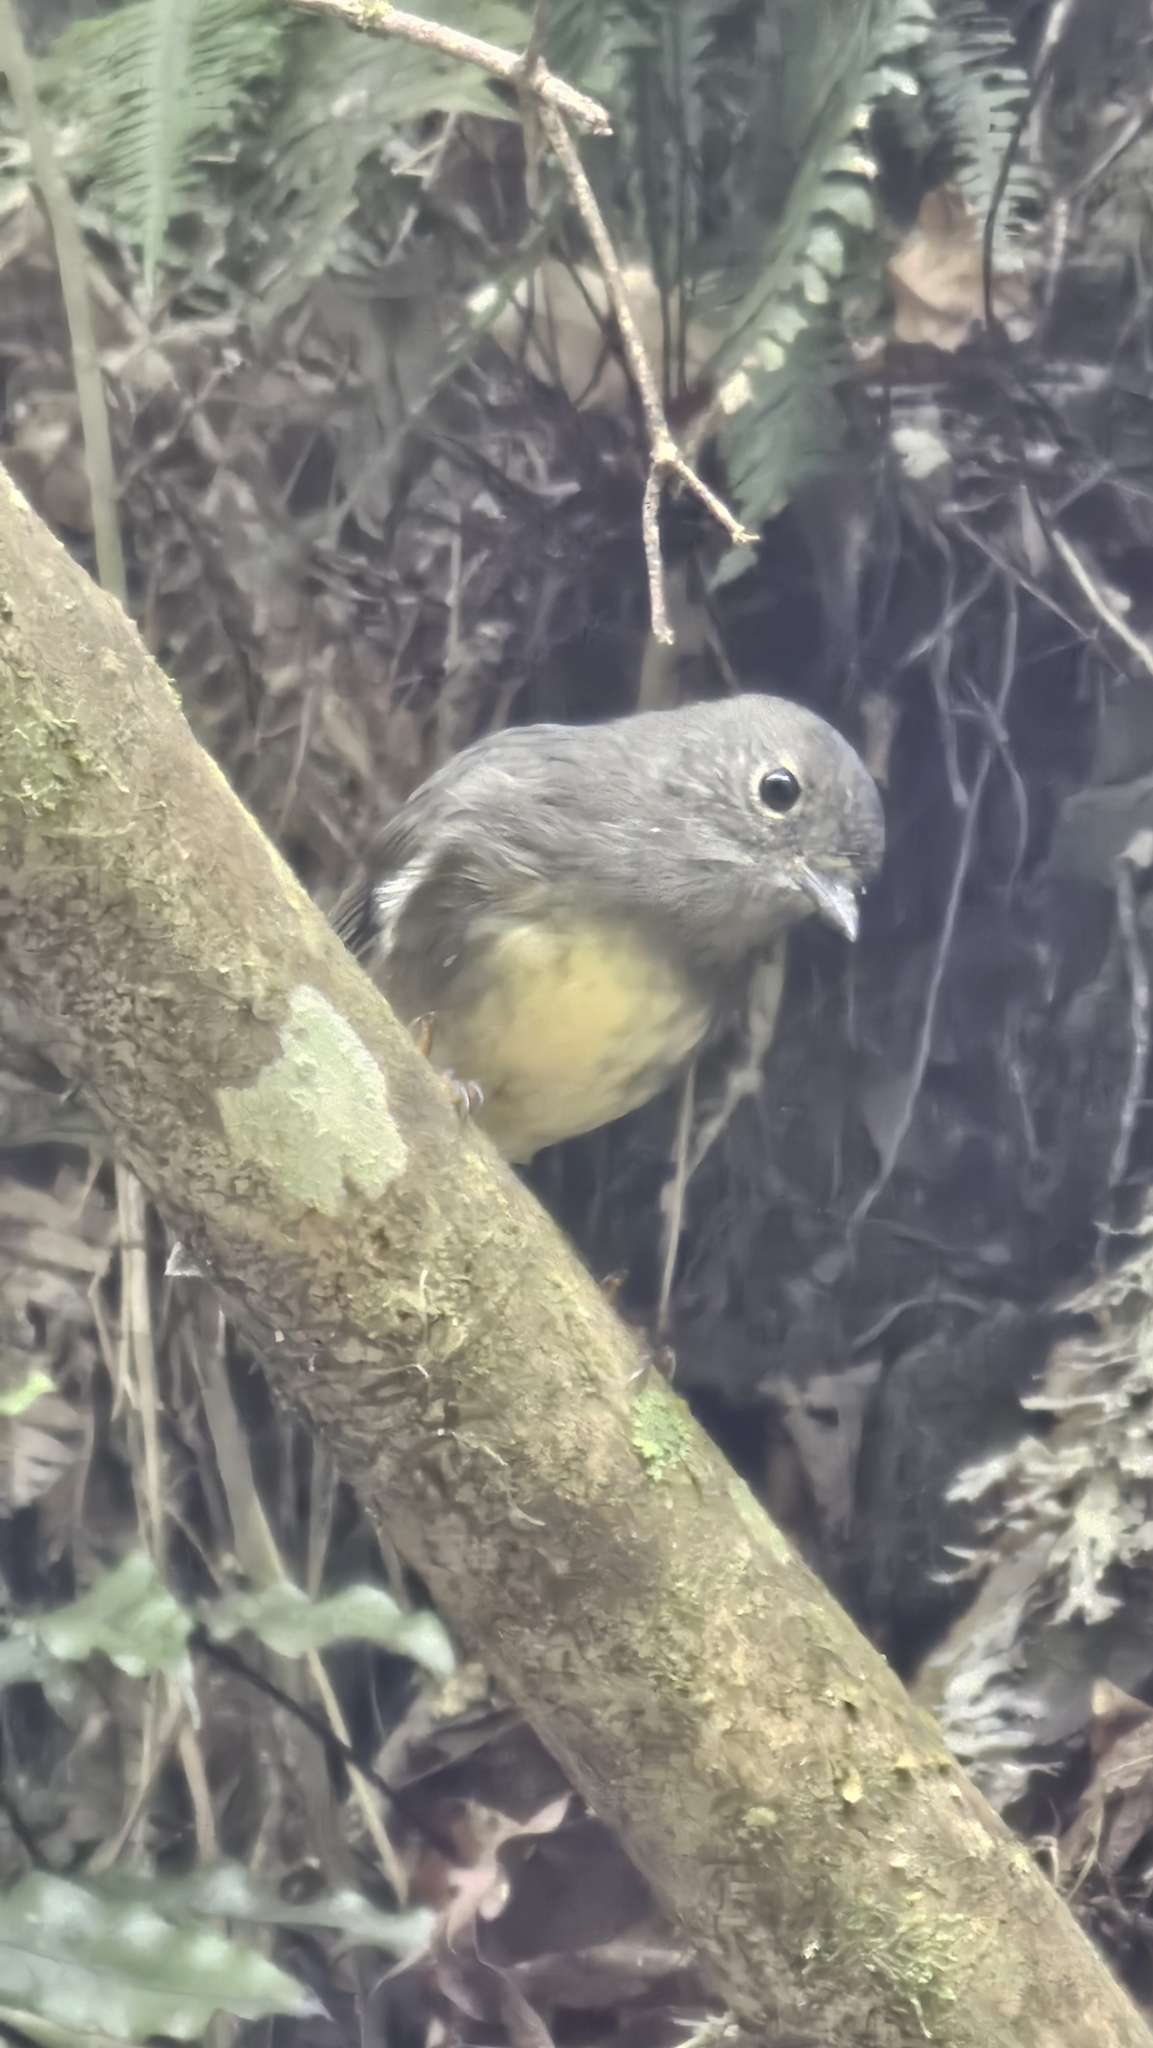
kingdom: Animalia
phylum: Chordata
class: Aves
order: Passeriformes
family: Petroicidae
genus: Petroica
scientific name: Petroica australis
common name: New zealand robin
